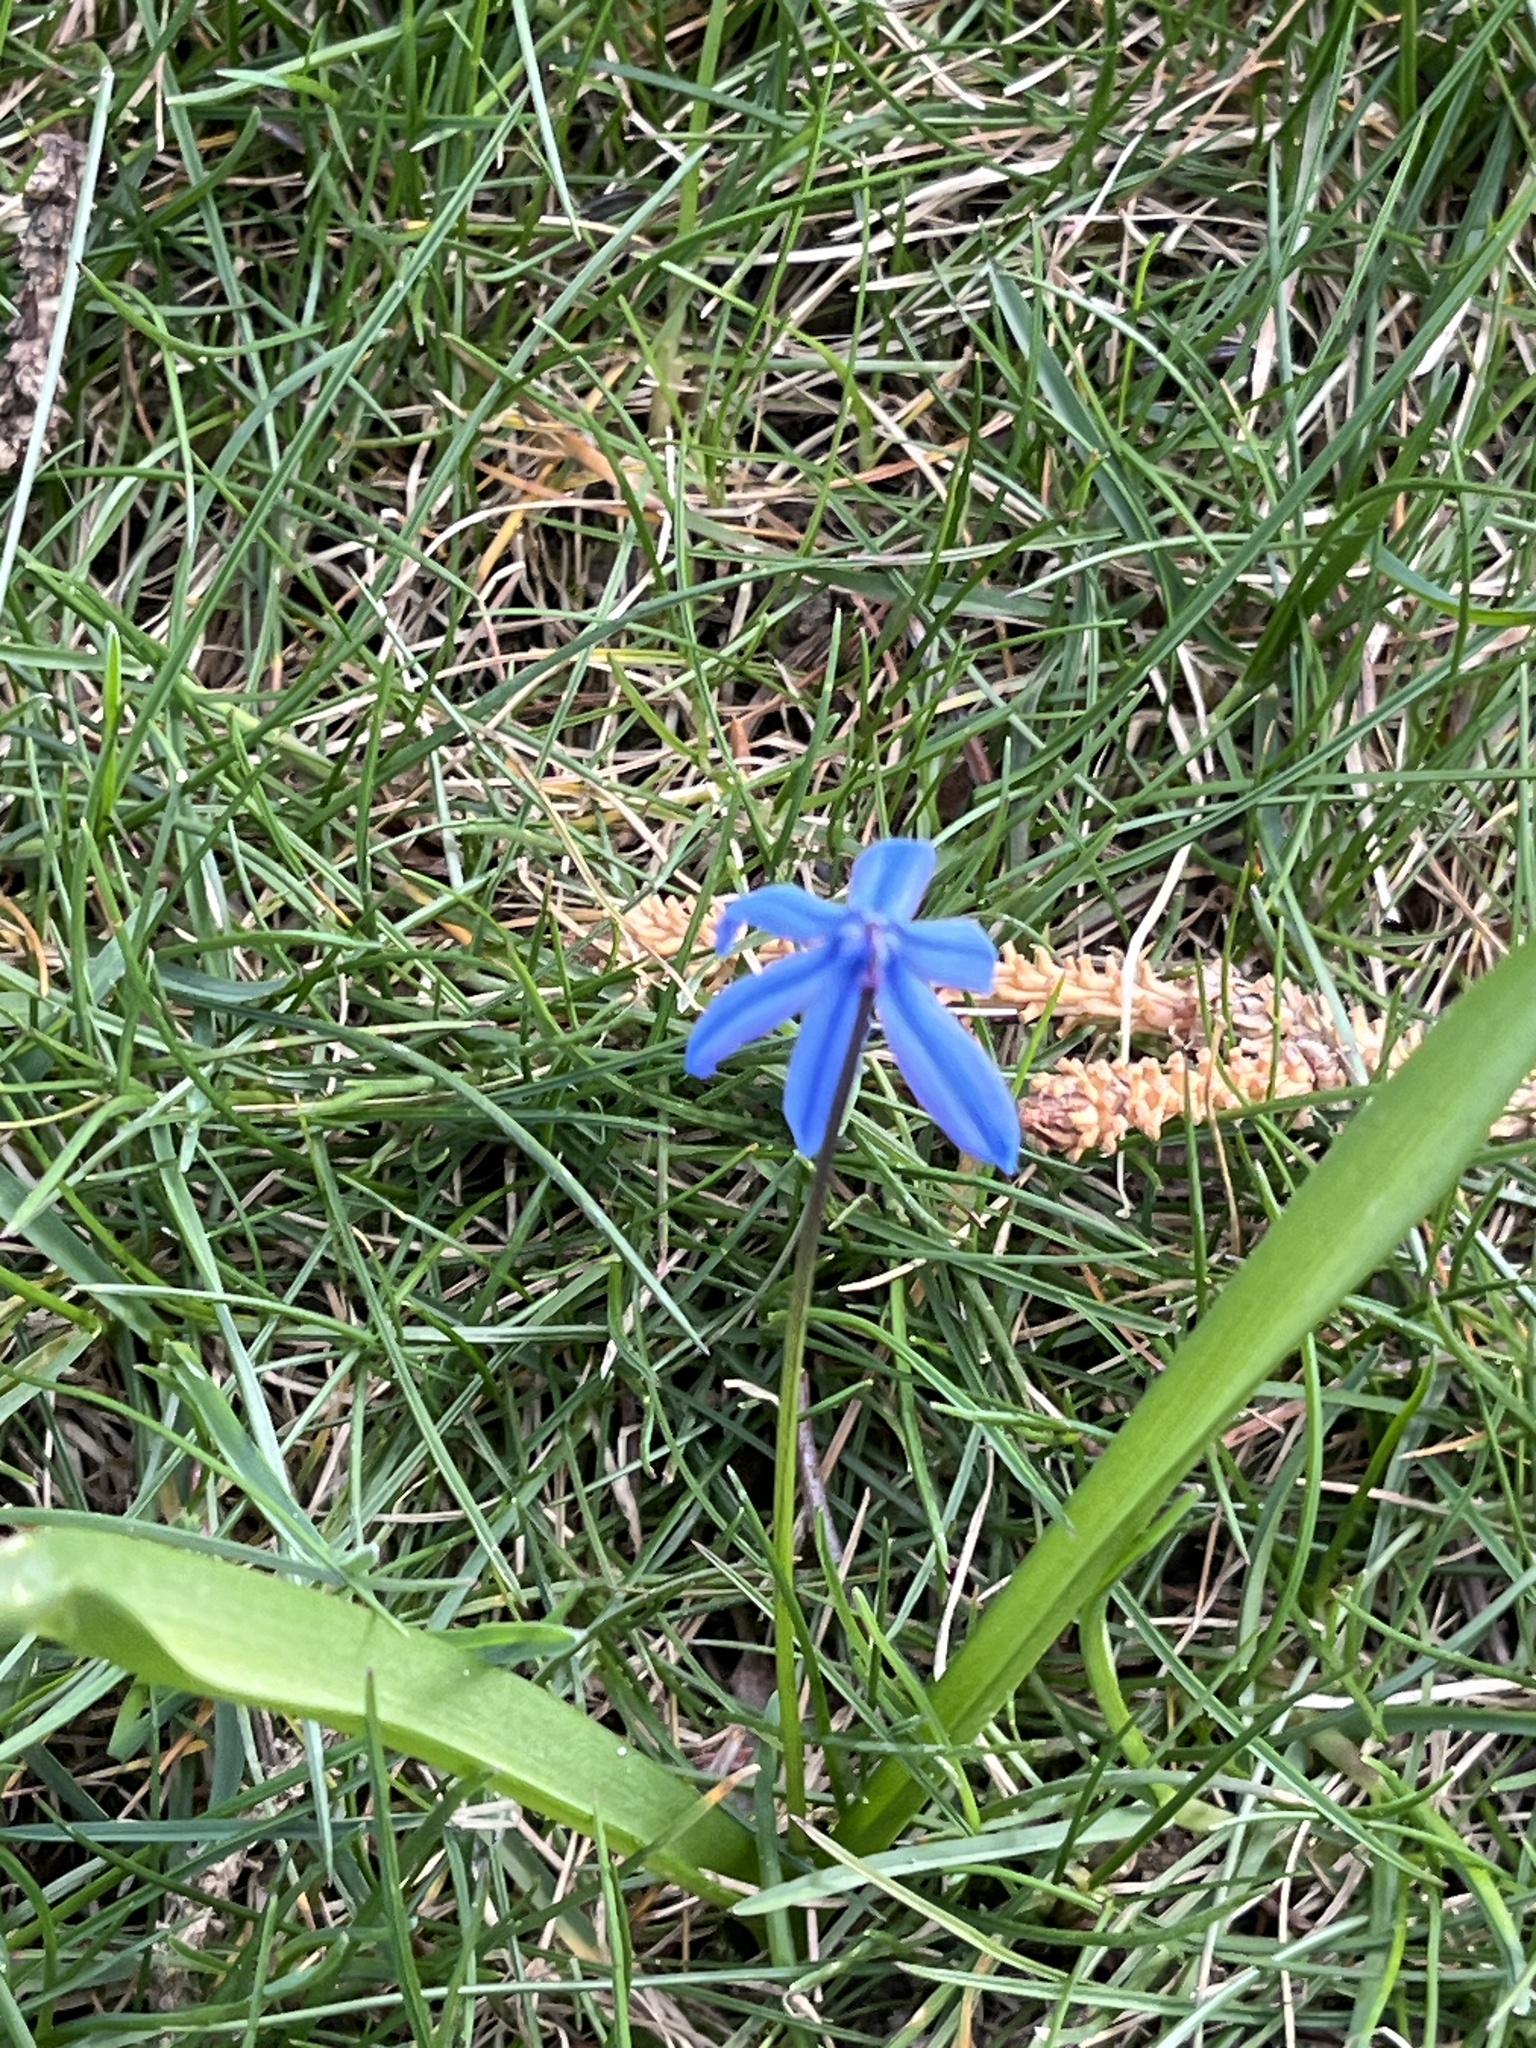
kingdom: Plantae
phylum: Tracheophyta
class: Liliopsida
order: Asparagales
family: Asparagaceae
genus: Scilla
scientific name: Scilla siberica
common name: Siberian squill
